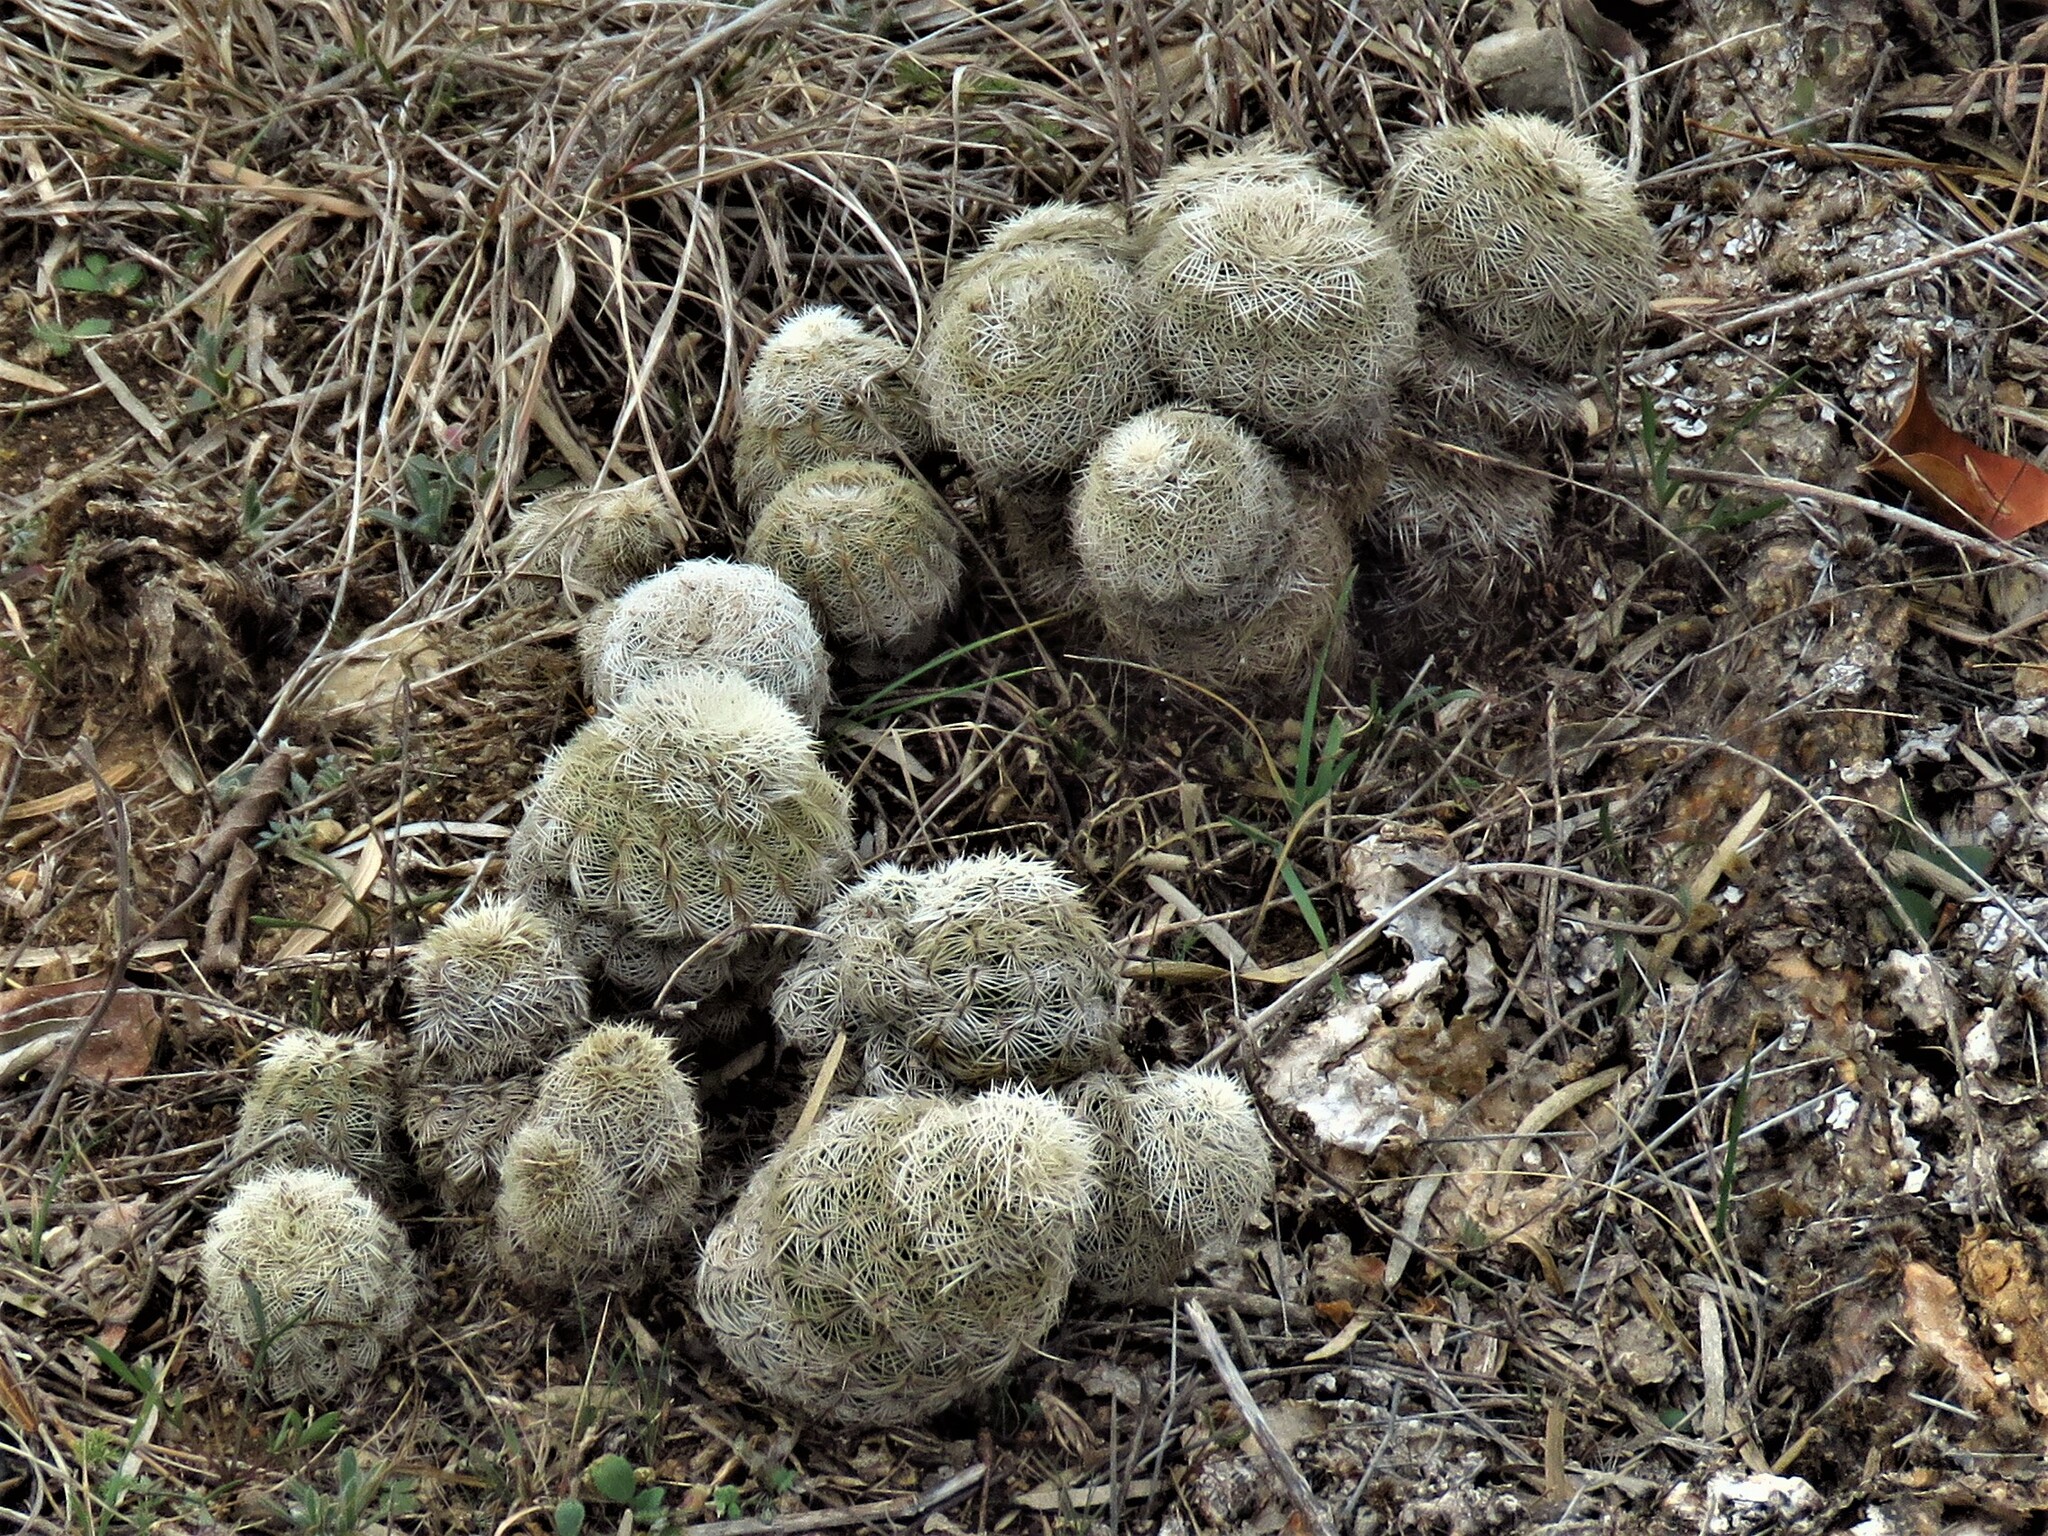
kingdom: Plantae
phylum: Tracheophyta
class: Magnoliopsida
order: Caryophyllales
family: Cactaceae
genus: Echinocereus
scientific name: Echinocereus reichenbachii
